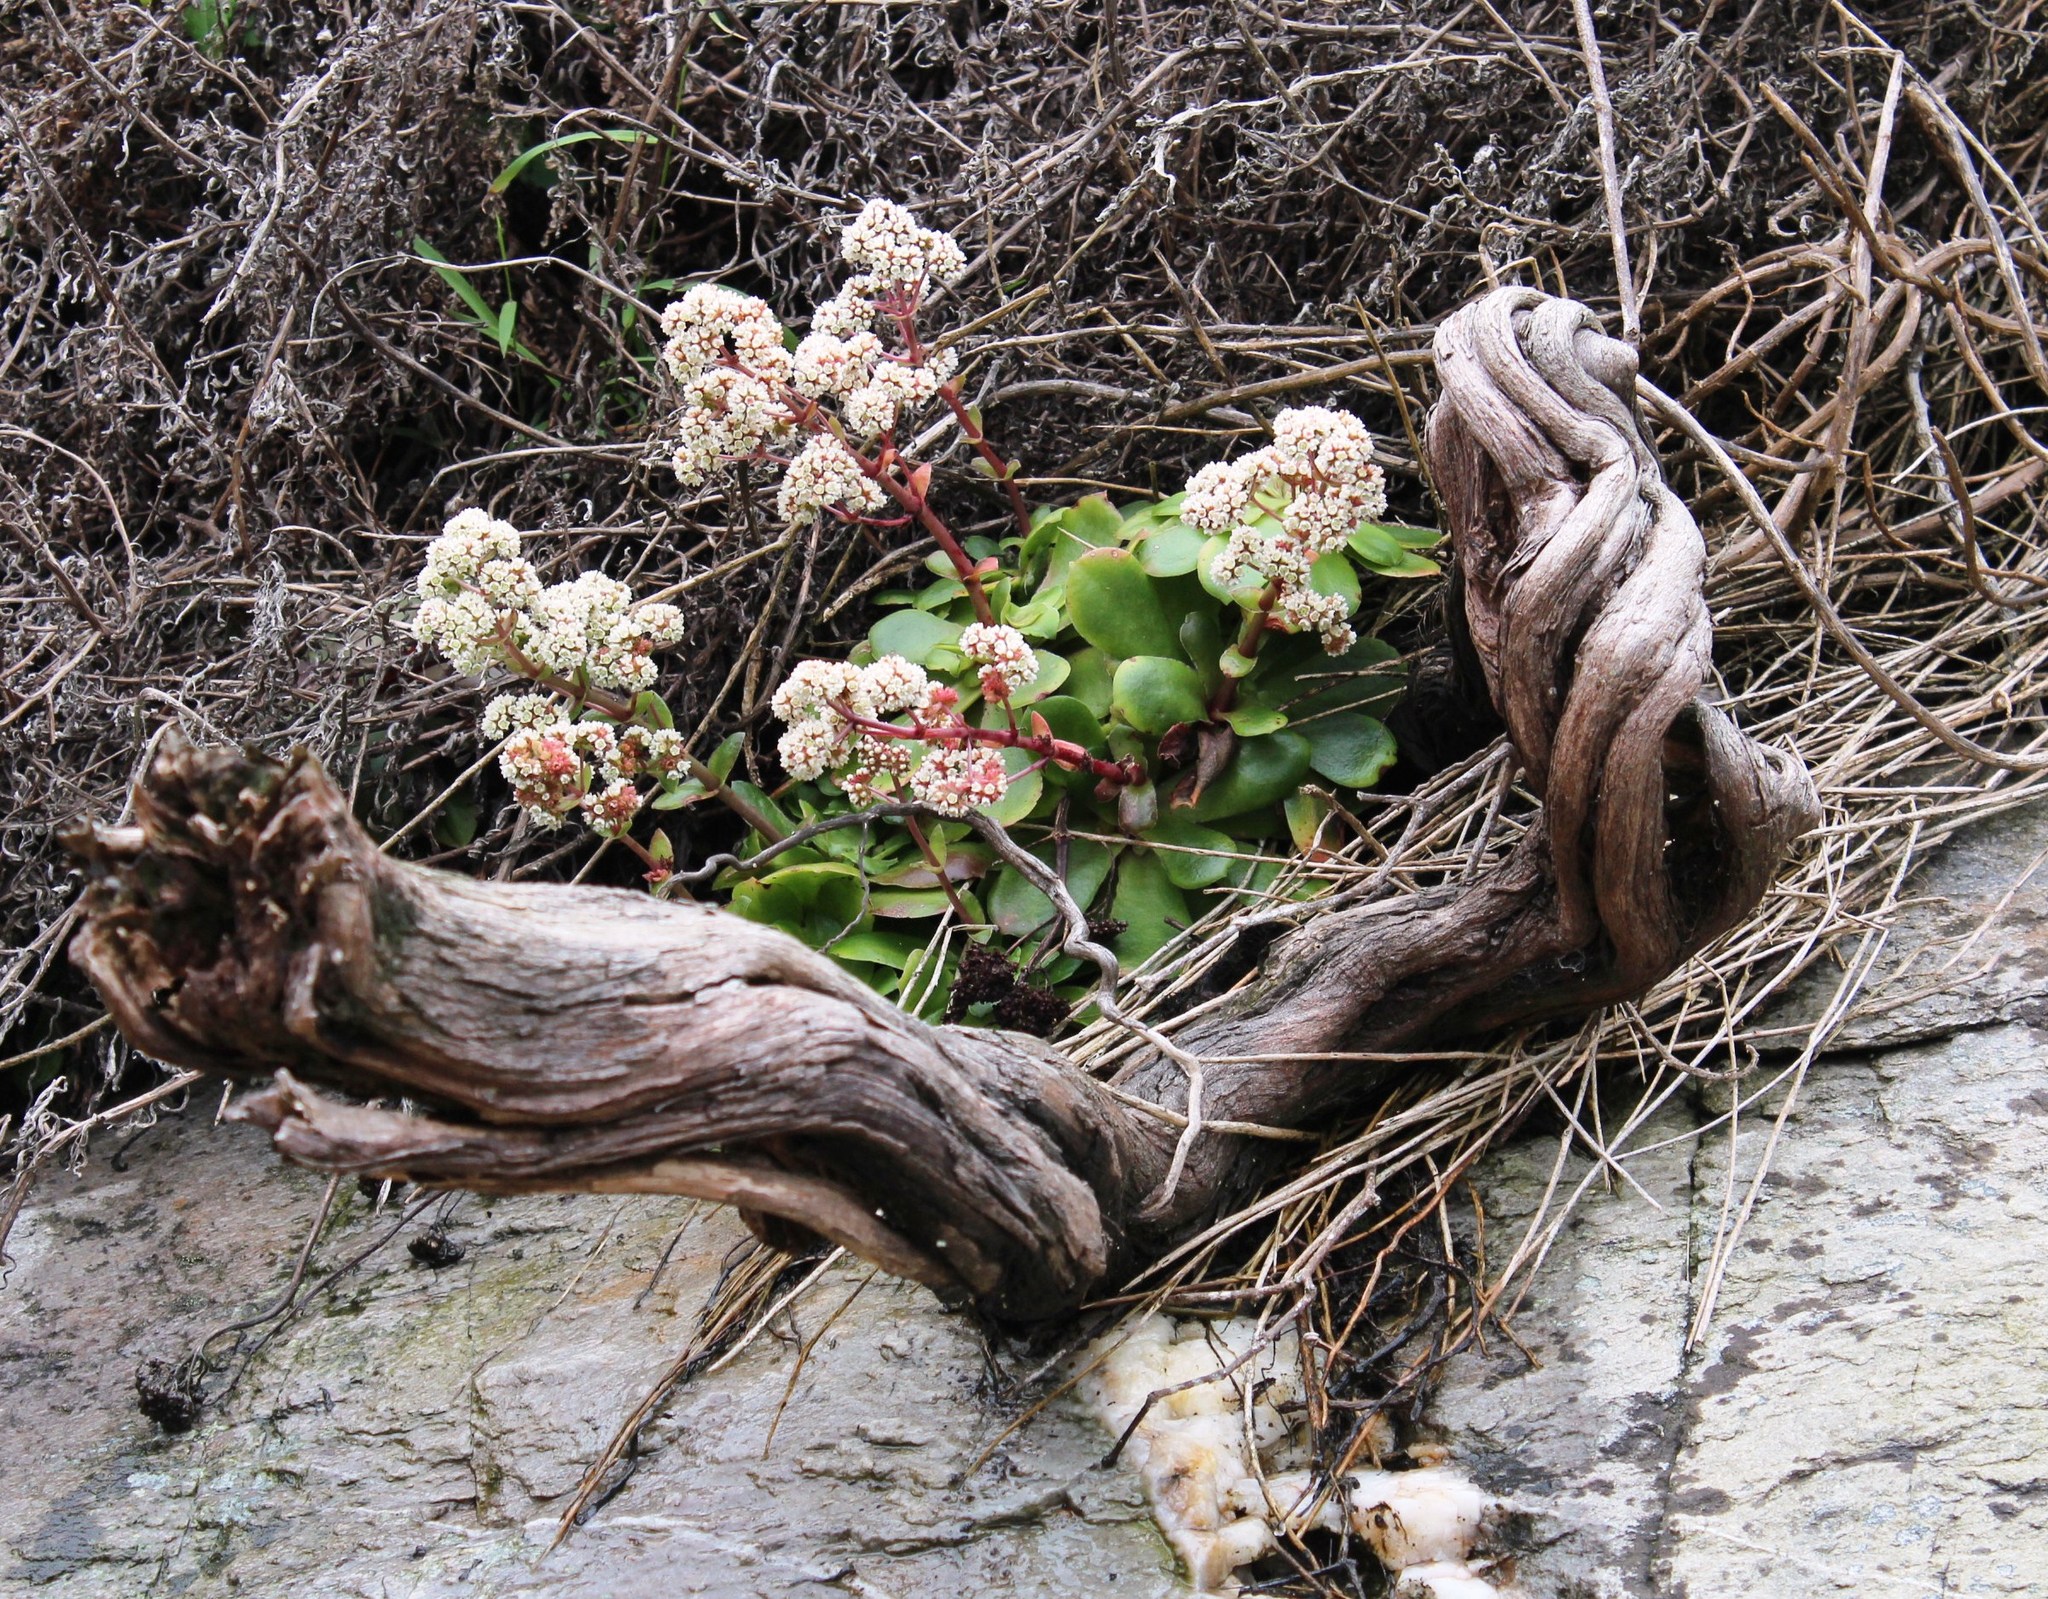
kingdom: Plantae
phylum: Tracheophyta
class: Magnoliopsida
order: Saxifragales
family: Crassulaceae
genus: Crassula
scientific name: Crassula orbicularis
